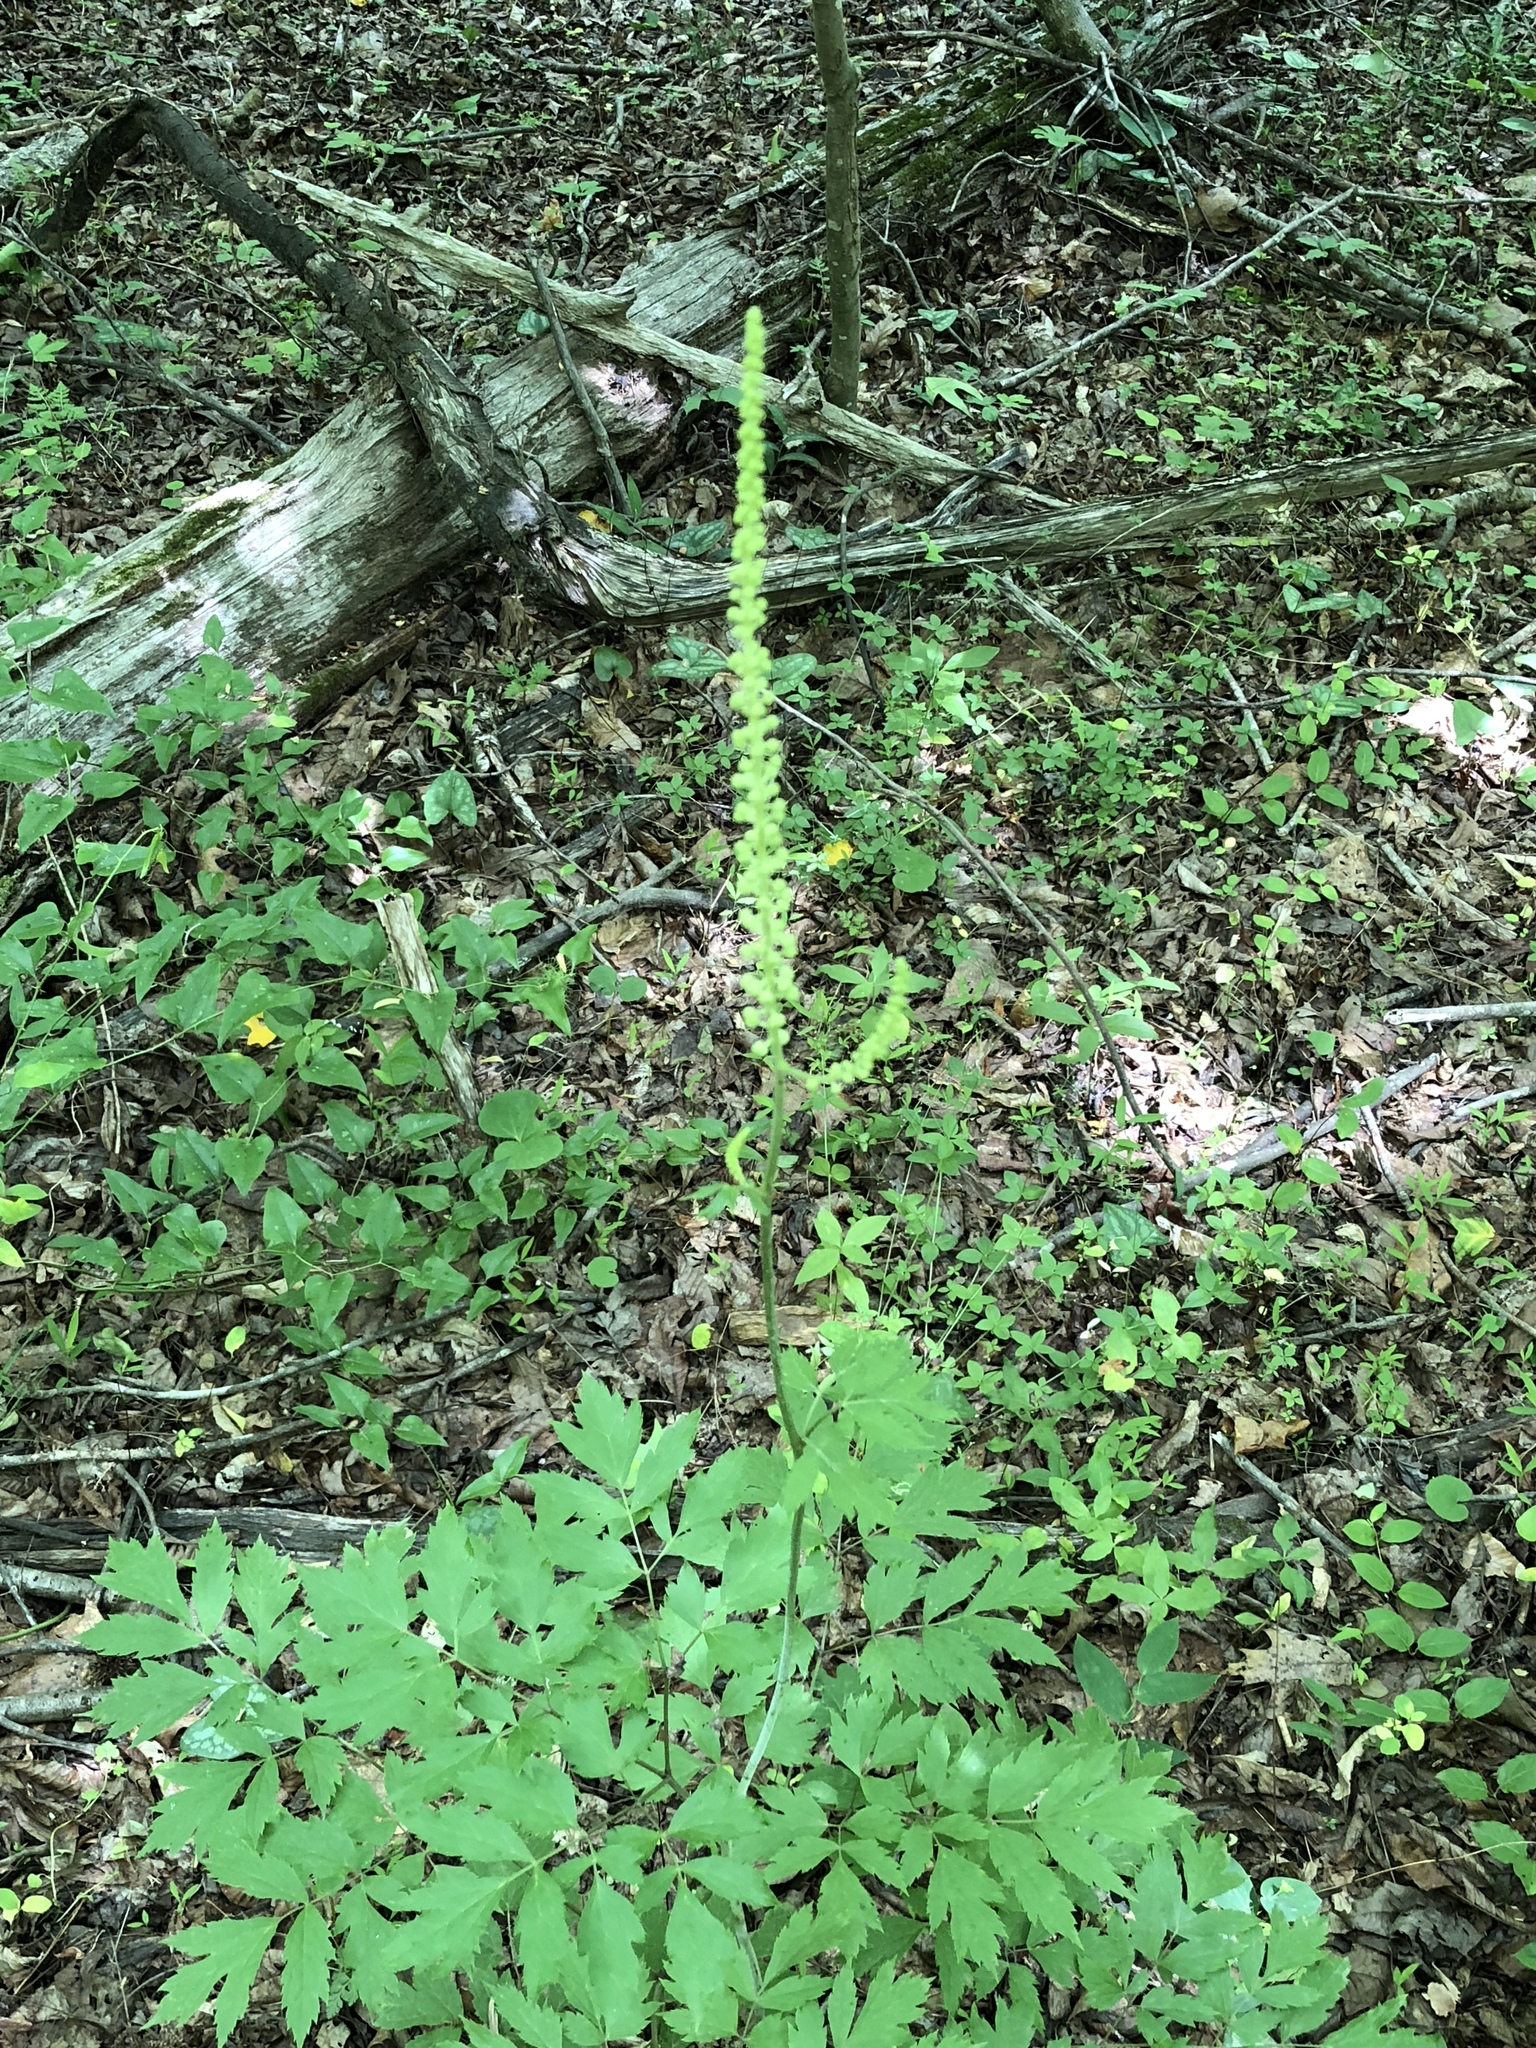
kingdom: Plantae
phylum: Tracheophyta
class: Magnoliopsida
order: Ranunculales
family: Ranunculaceae
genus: Actaea
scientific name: Actaea racemosa
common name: Black cohosh
